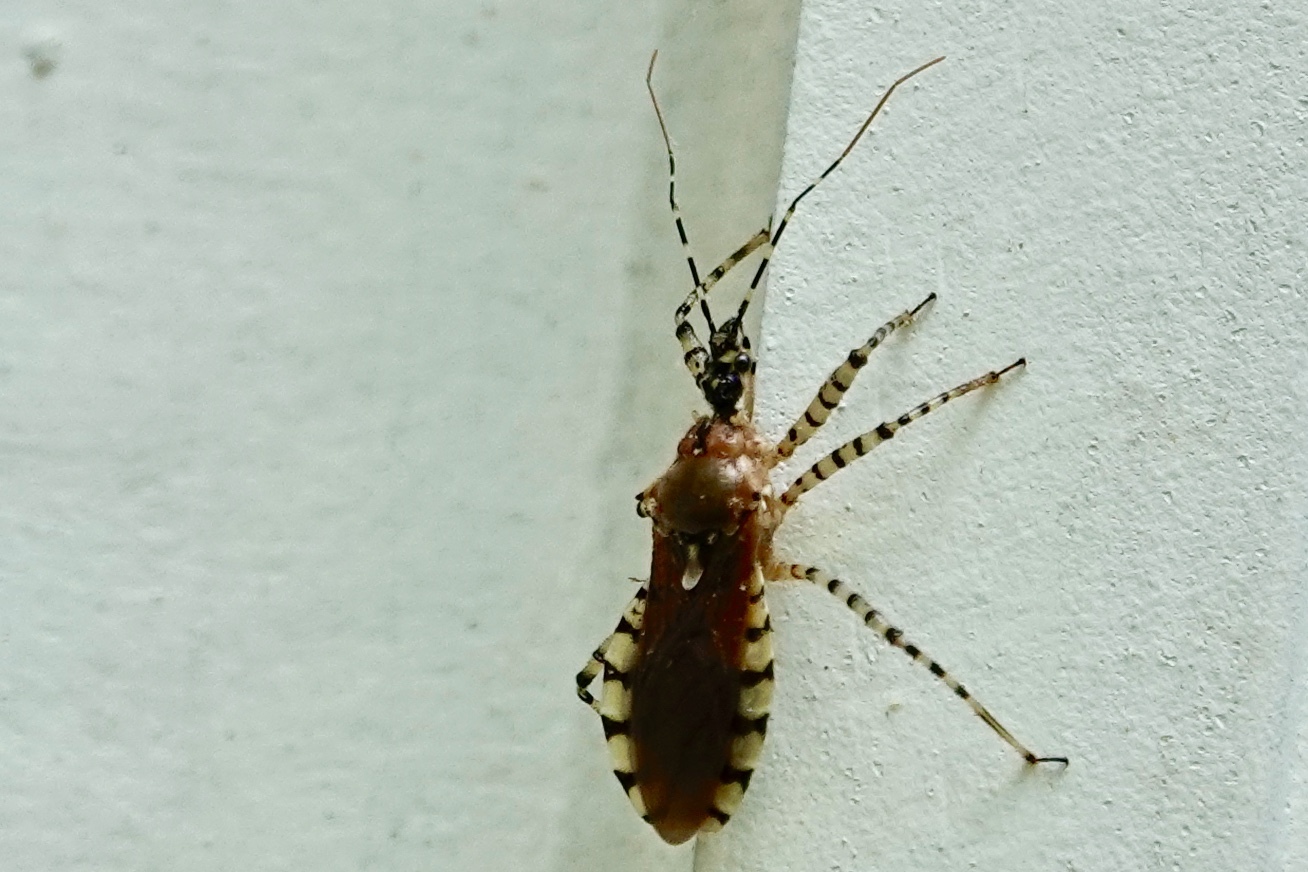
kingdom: Animalia
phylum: Arthropoda
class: Insecta
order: Hemiptera
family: Reduviidae
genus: Pselliopus
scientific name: Pselliopus cinctus
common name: Ringed assassin bug
